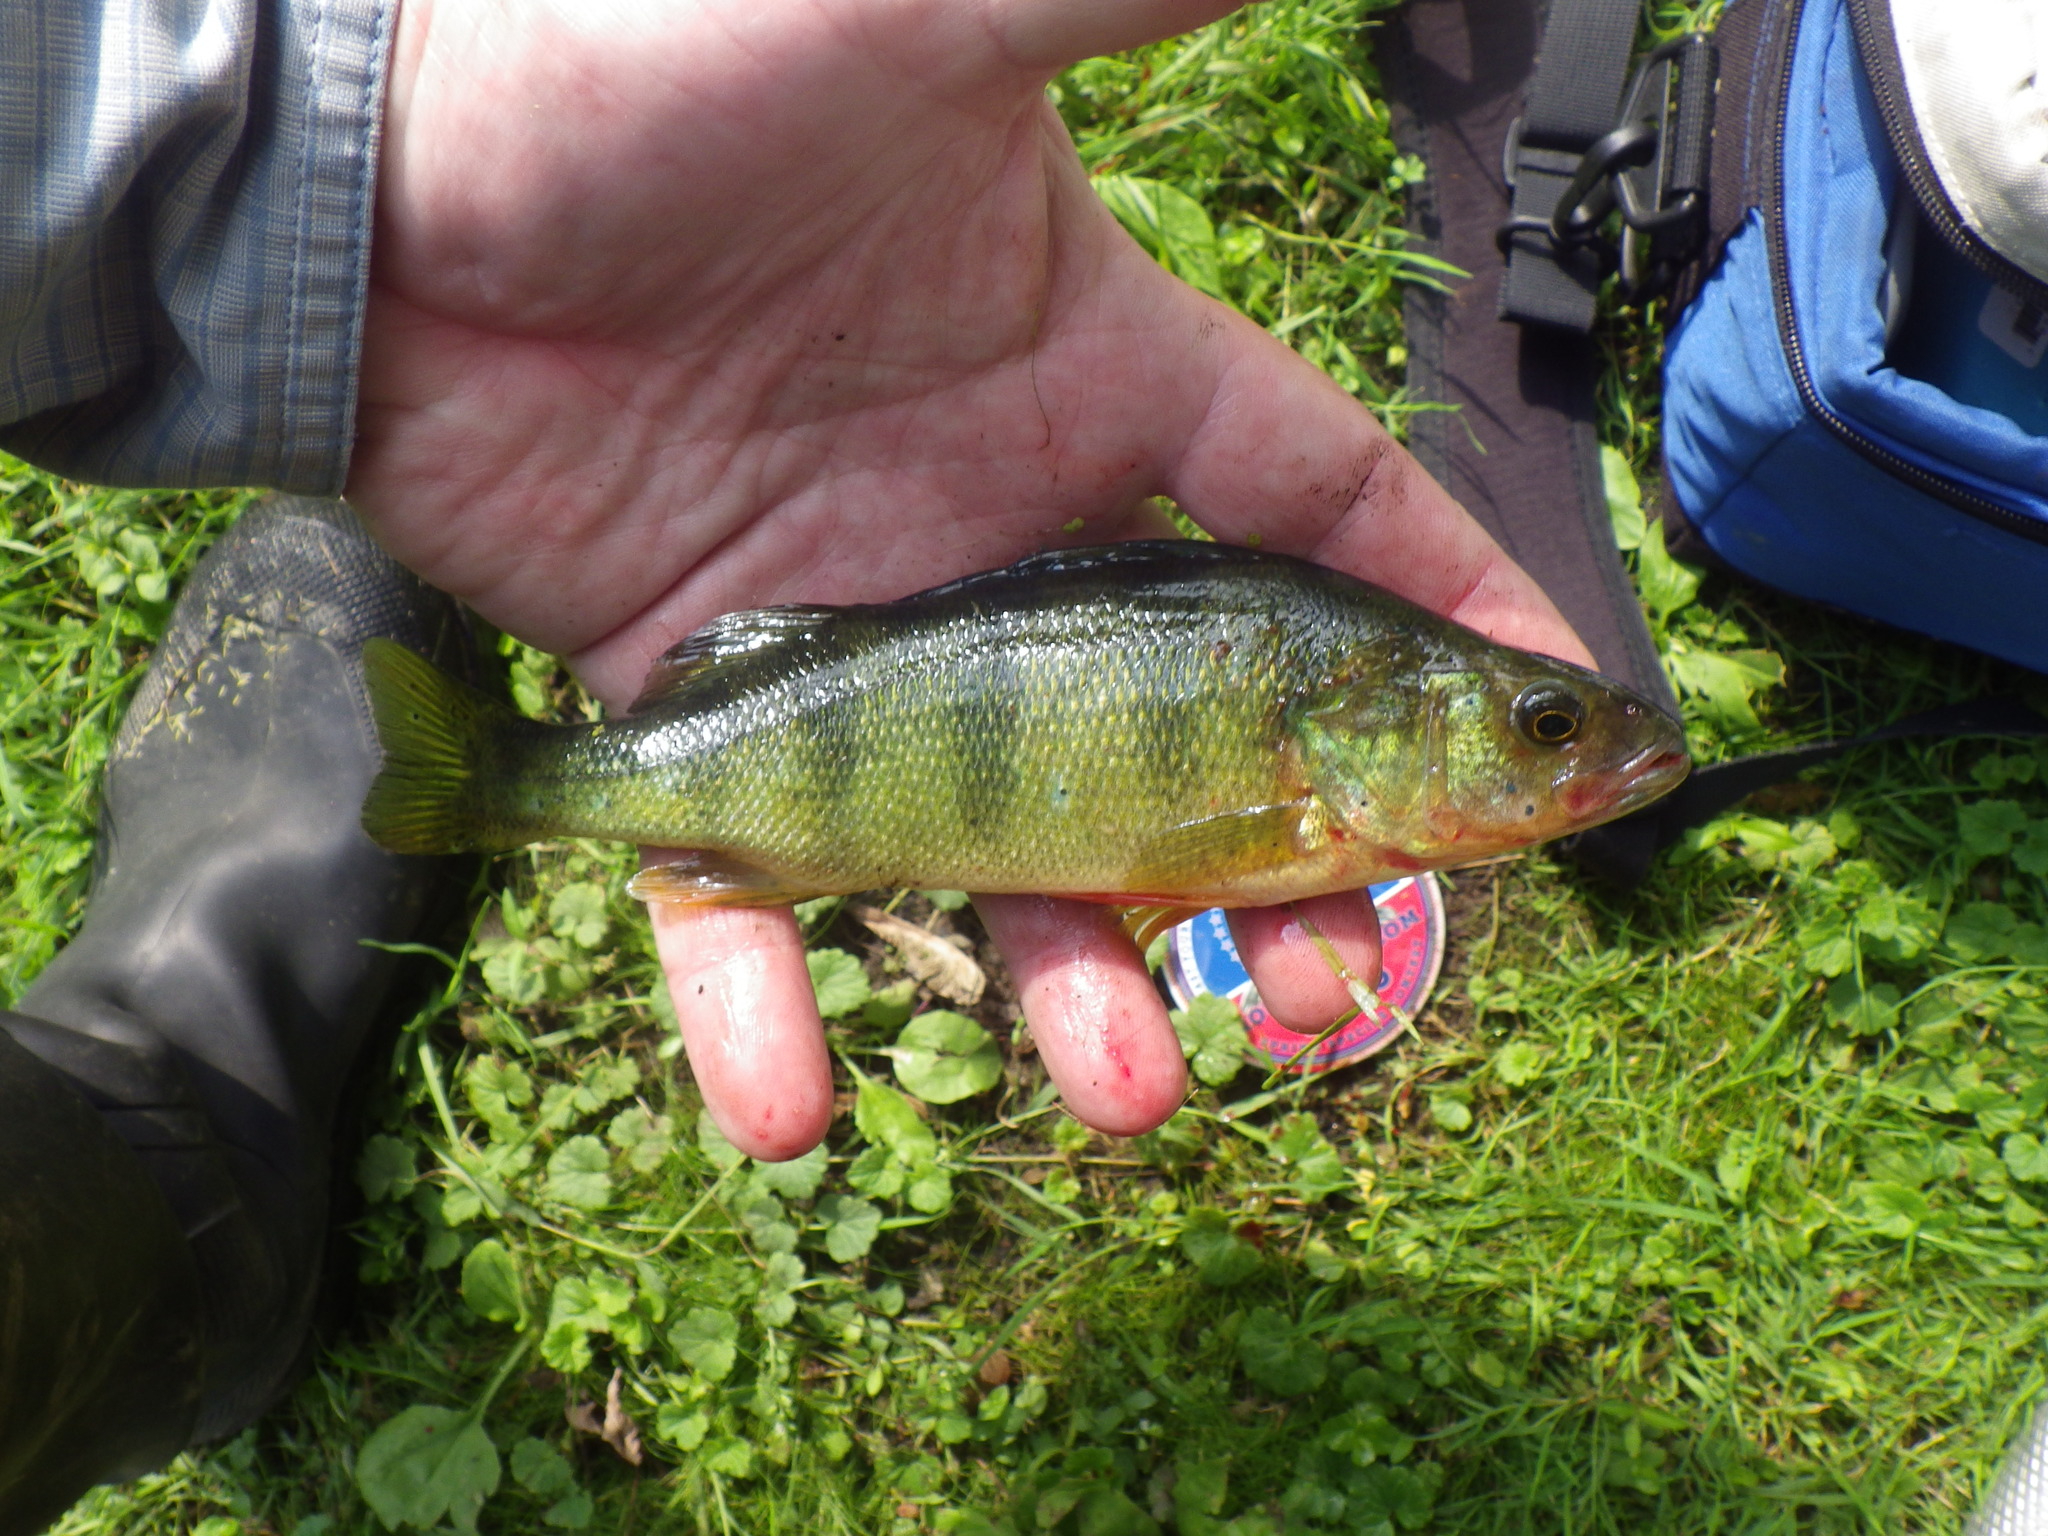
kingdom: Animalia
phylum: Chordata
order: Perciformes
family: Percidae
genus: Perca
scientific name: Perca flavescens
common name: Yellow perch
